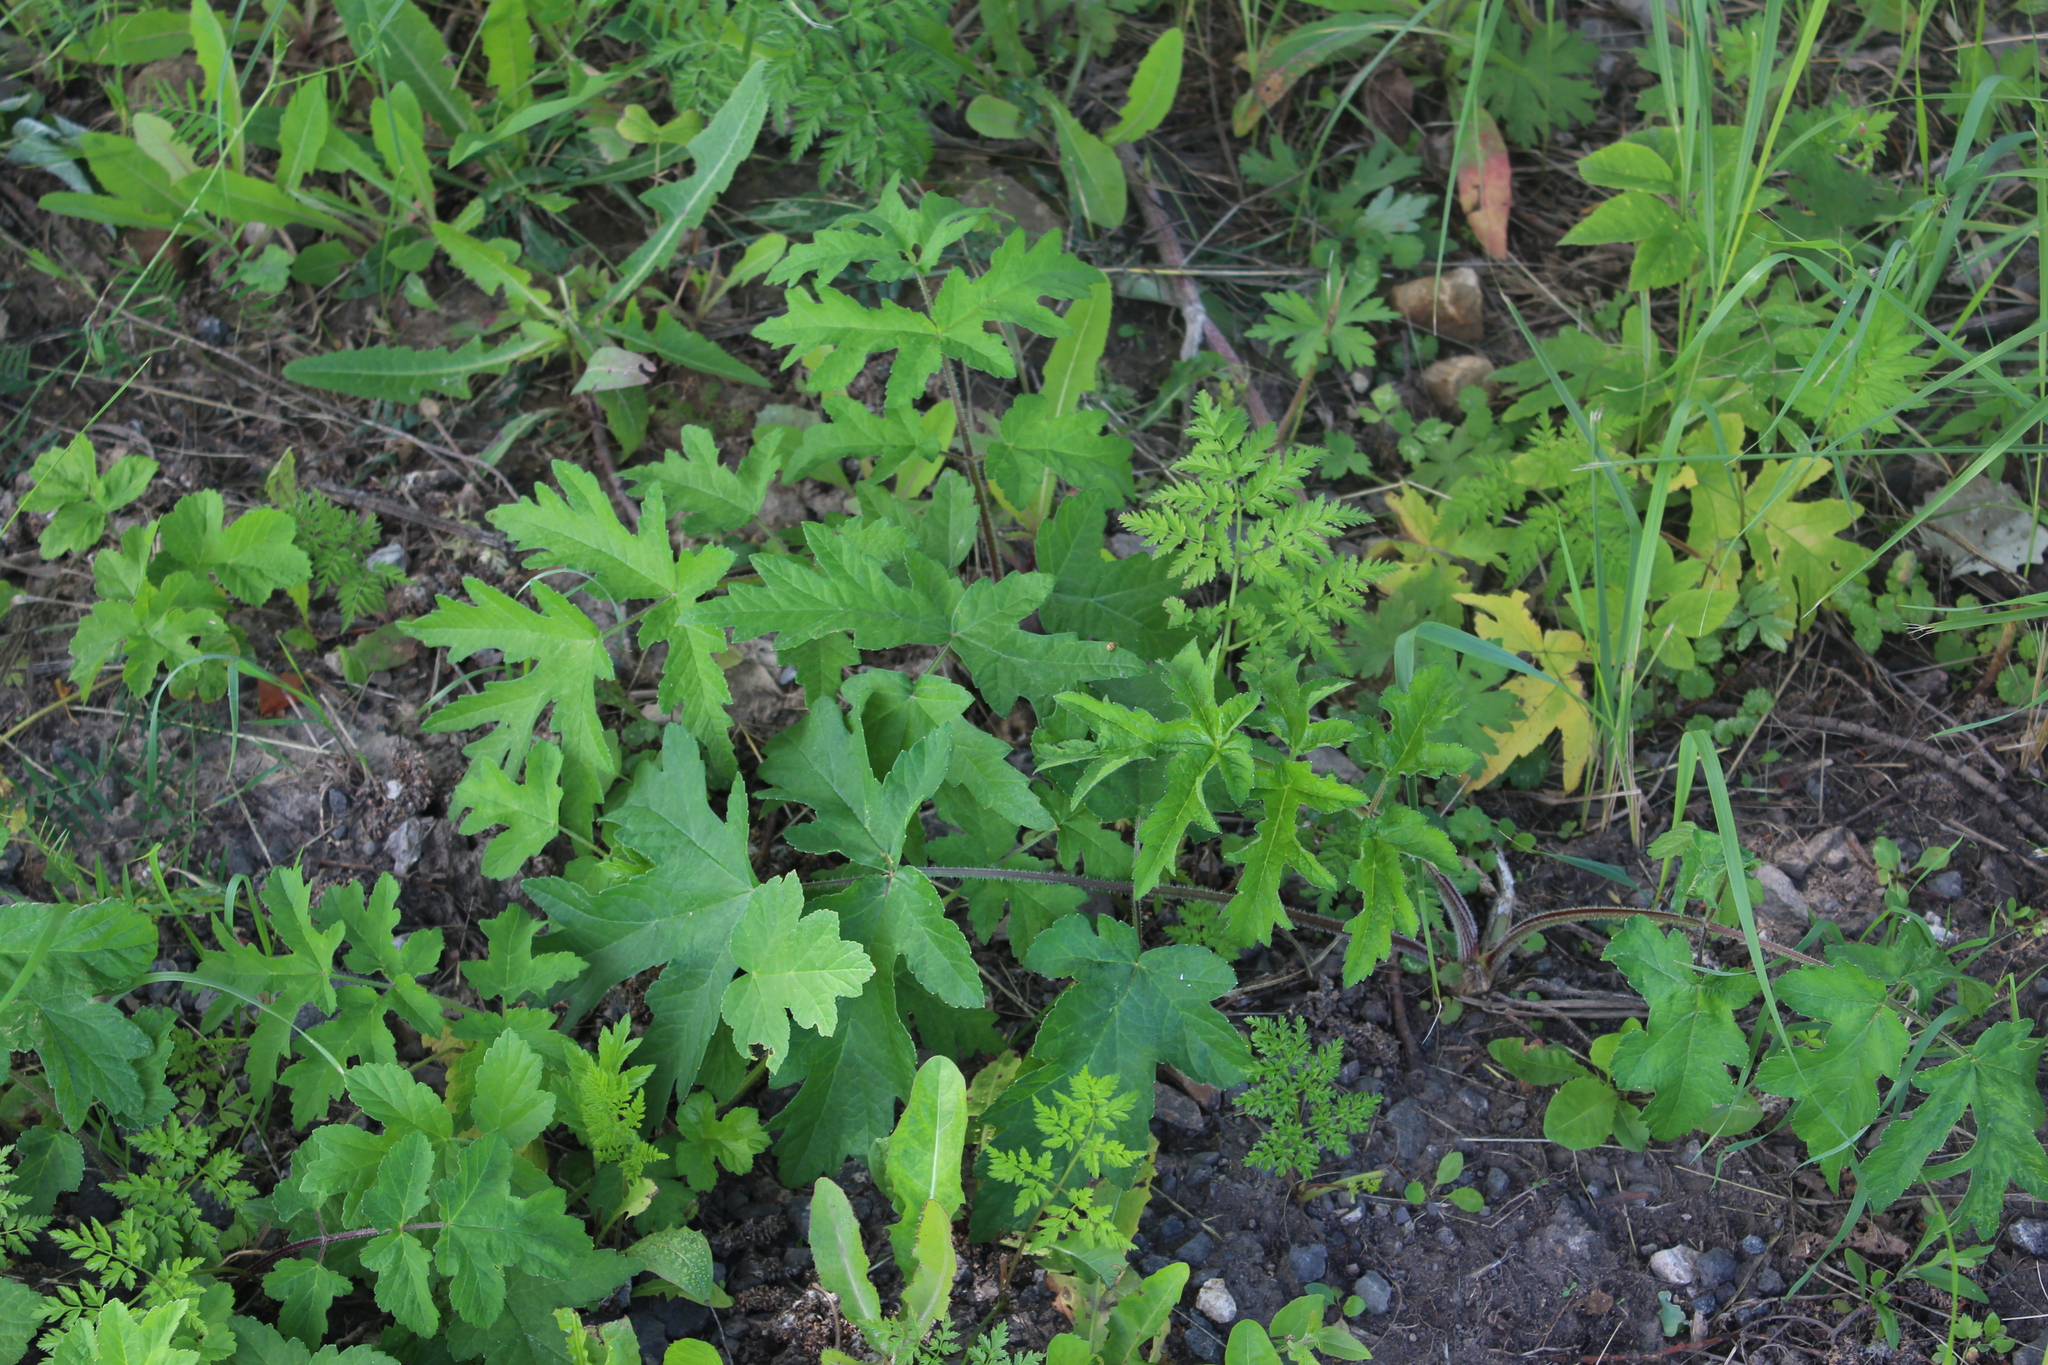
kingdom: Plantae
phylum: Tracheophyta
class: Magnoliopsida
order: Apiales
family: Apiaceae
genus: Heracleum
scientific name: Heracleum sphondylium
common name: Hogweed
